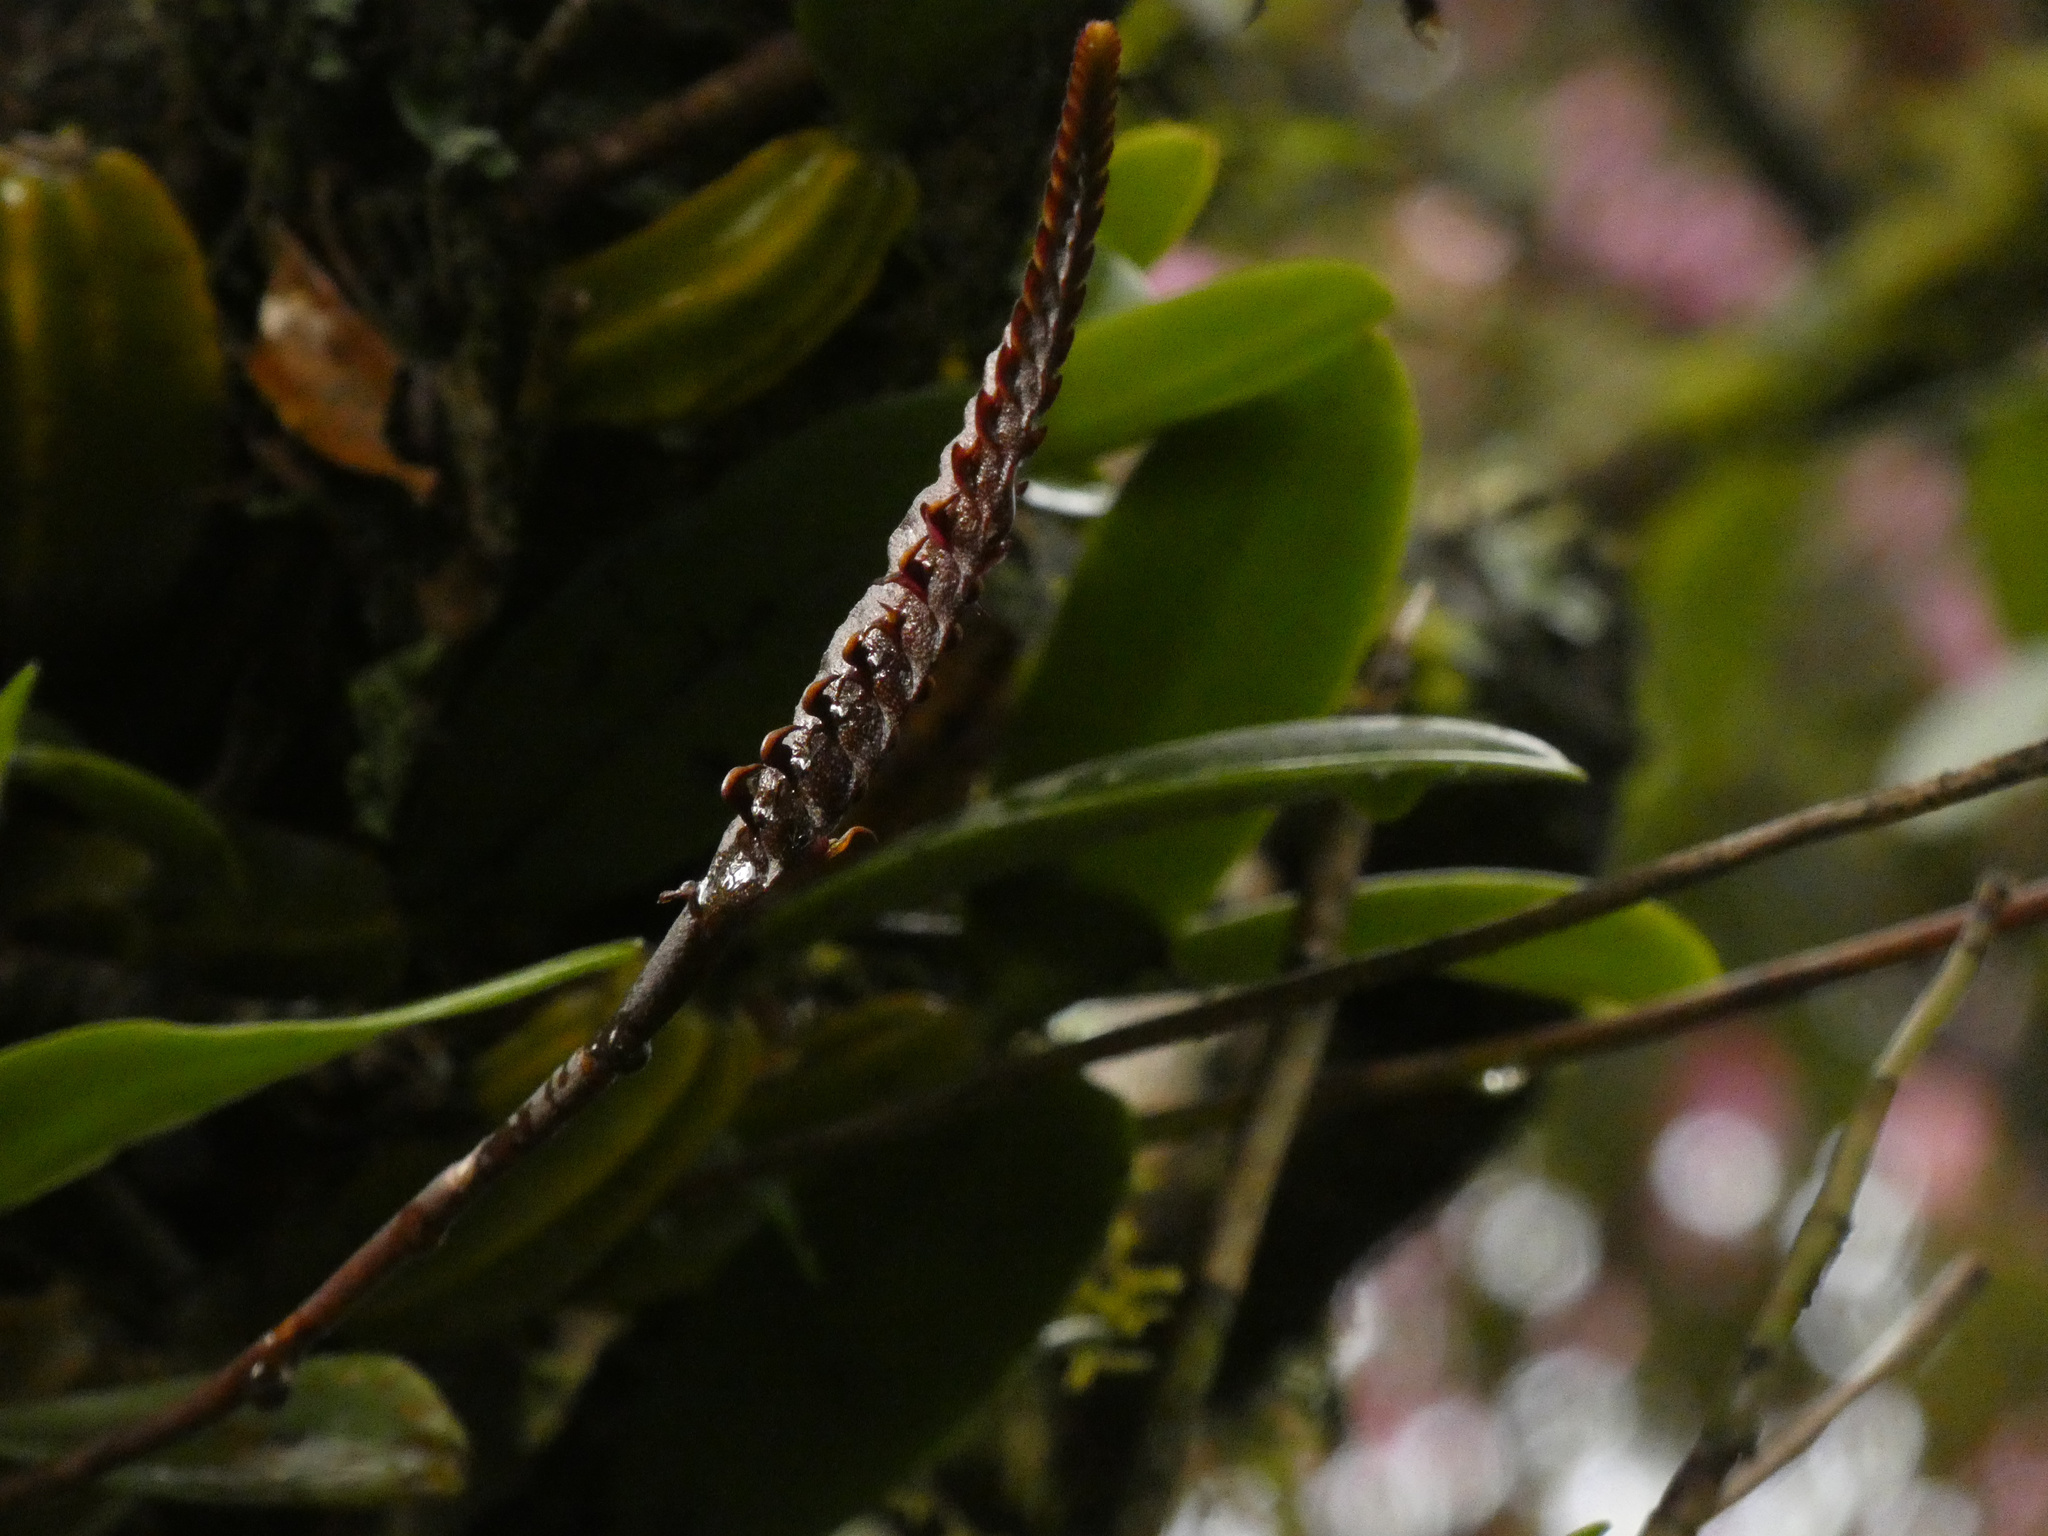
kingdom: Plantae
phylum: Tracheophyta
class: Liliopsida
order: Asparagales
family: Orchidaceae
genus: Bulbophyllum
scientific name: Bulbophyllum maximum
